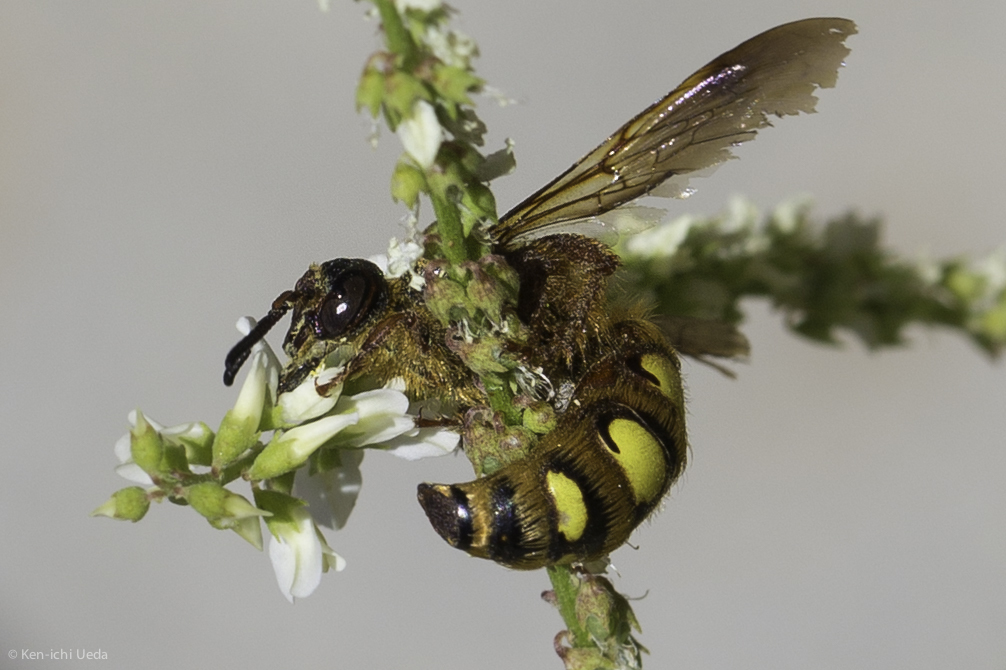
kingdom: Animalia
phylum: Arthropoda
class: Insecta
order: Hymenoptera
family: Sphecidae
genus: Crioscolia
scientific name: Crioscolia
